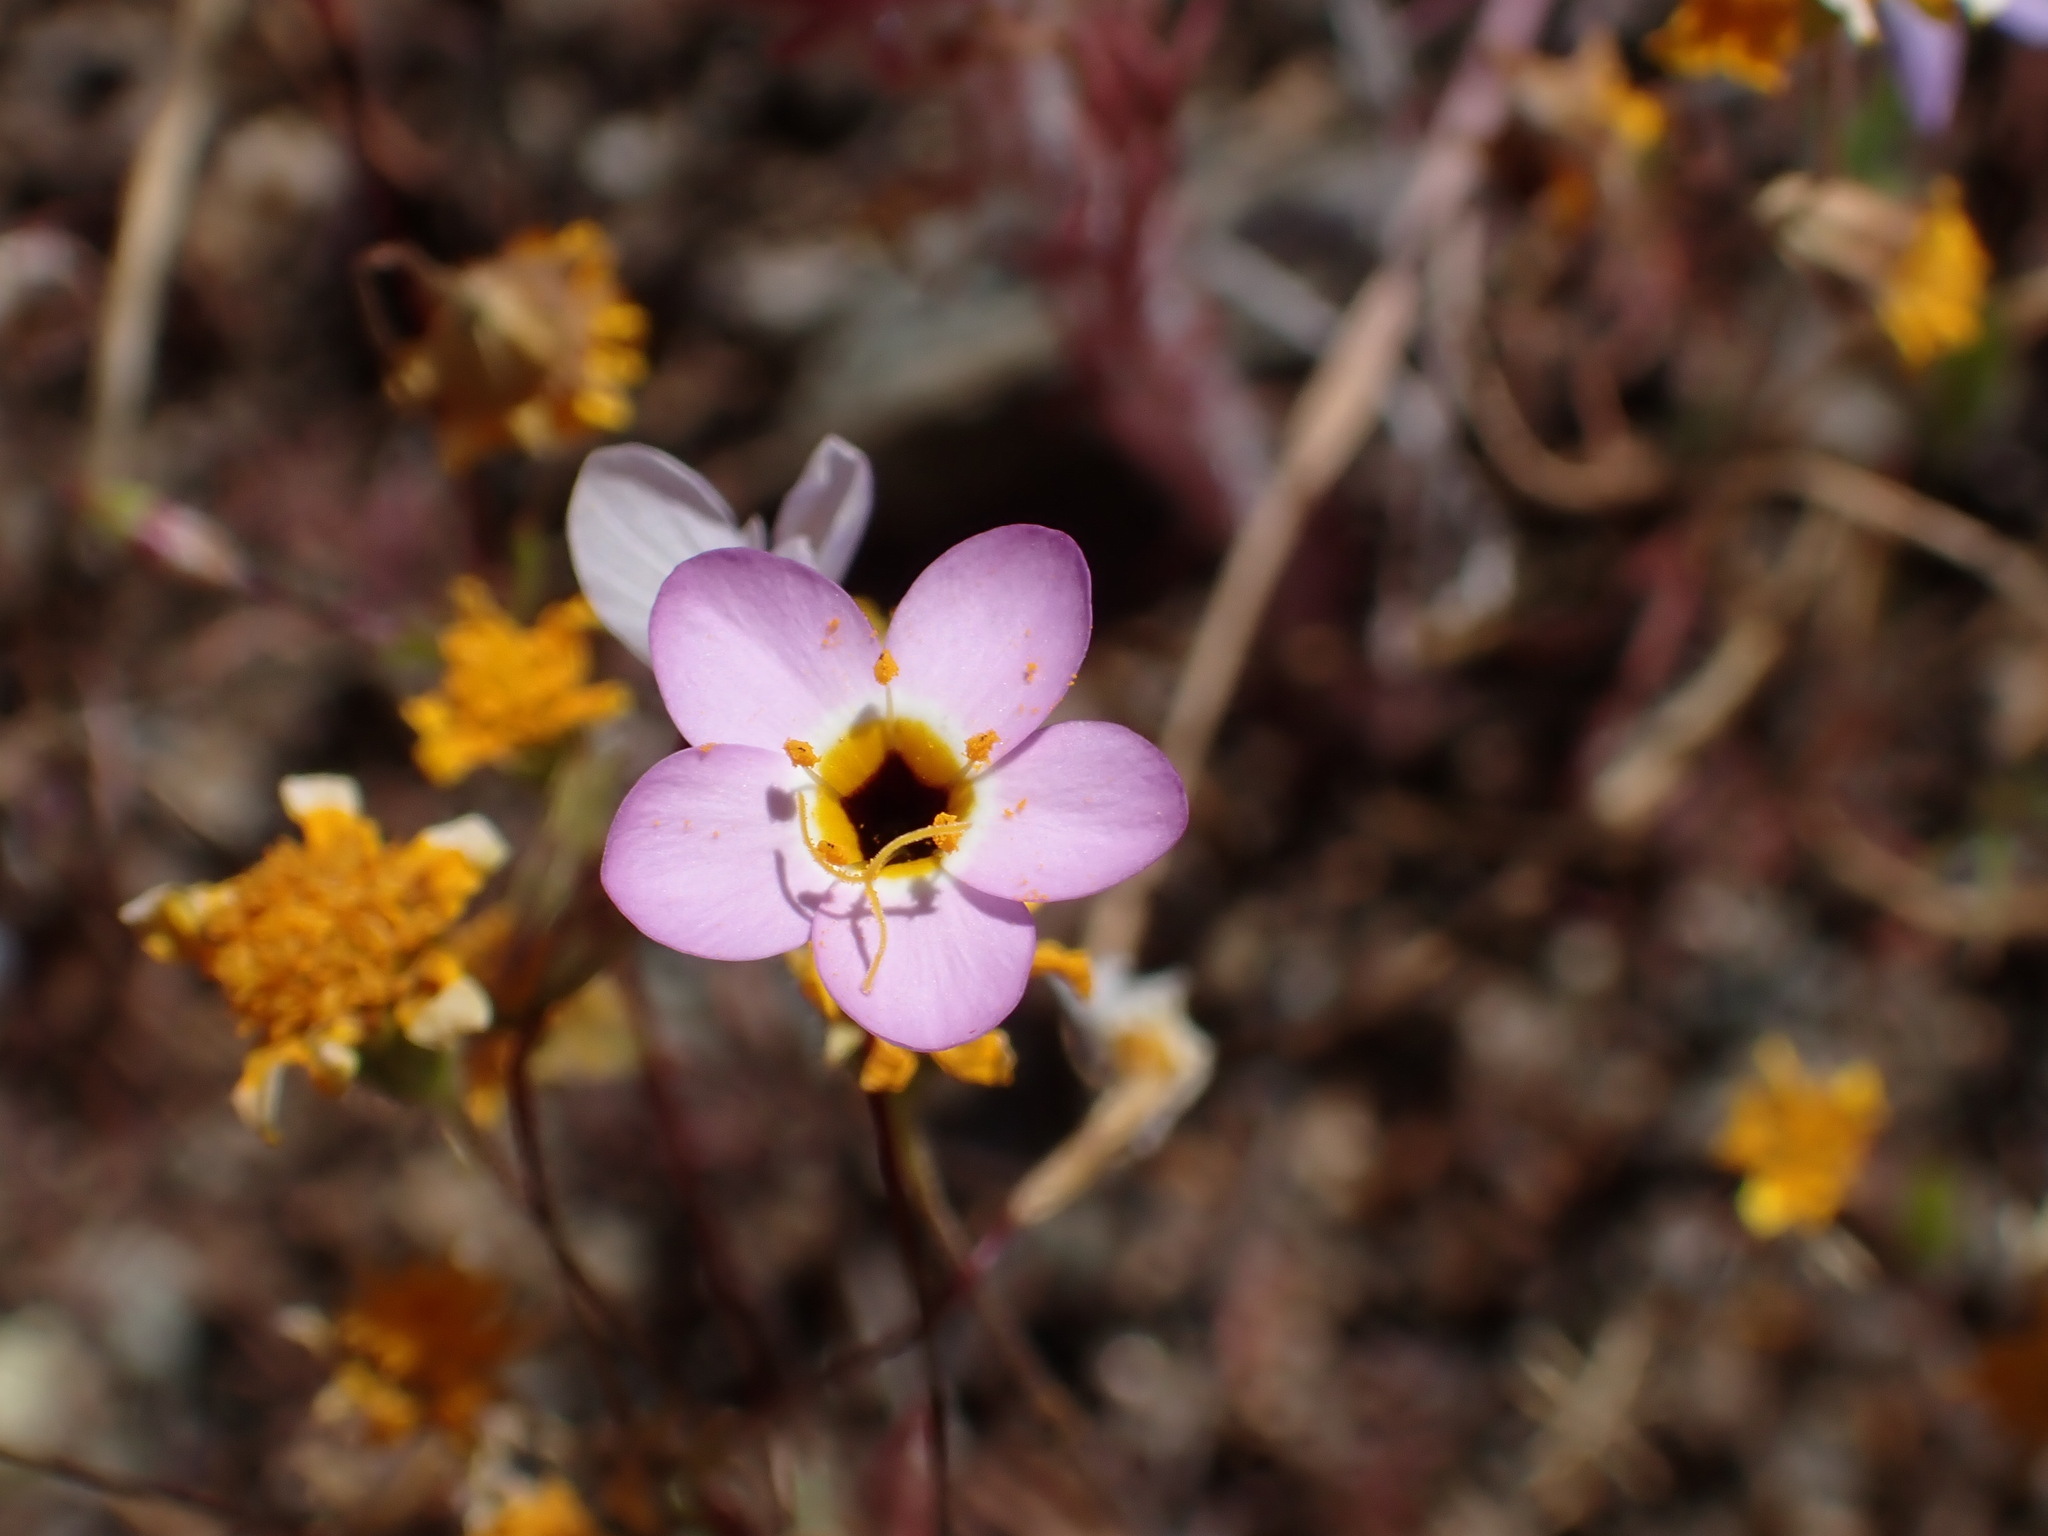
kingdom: Plantae
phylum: Tracheophyta
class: Magnoliopsida
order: Ericales
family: Polemoniaceae
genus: Leptosiphon
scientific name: Leptosiphon ambiguus
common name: Serpentine linanthus
